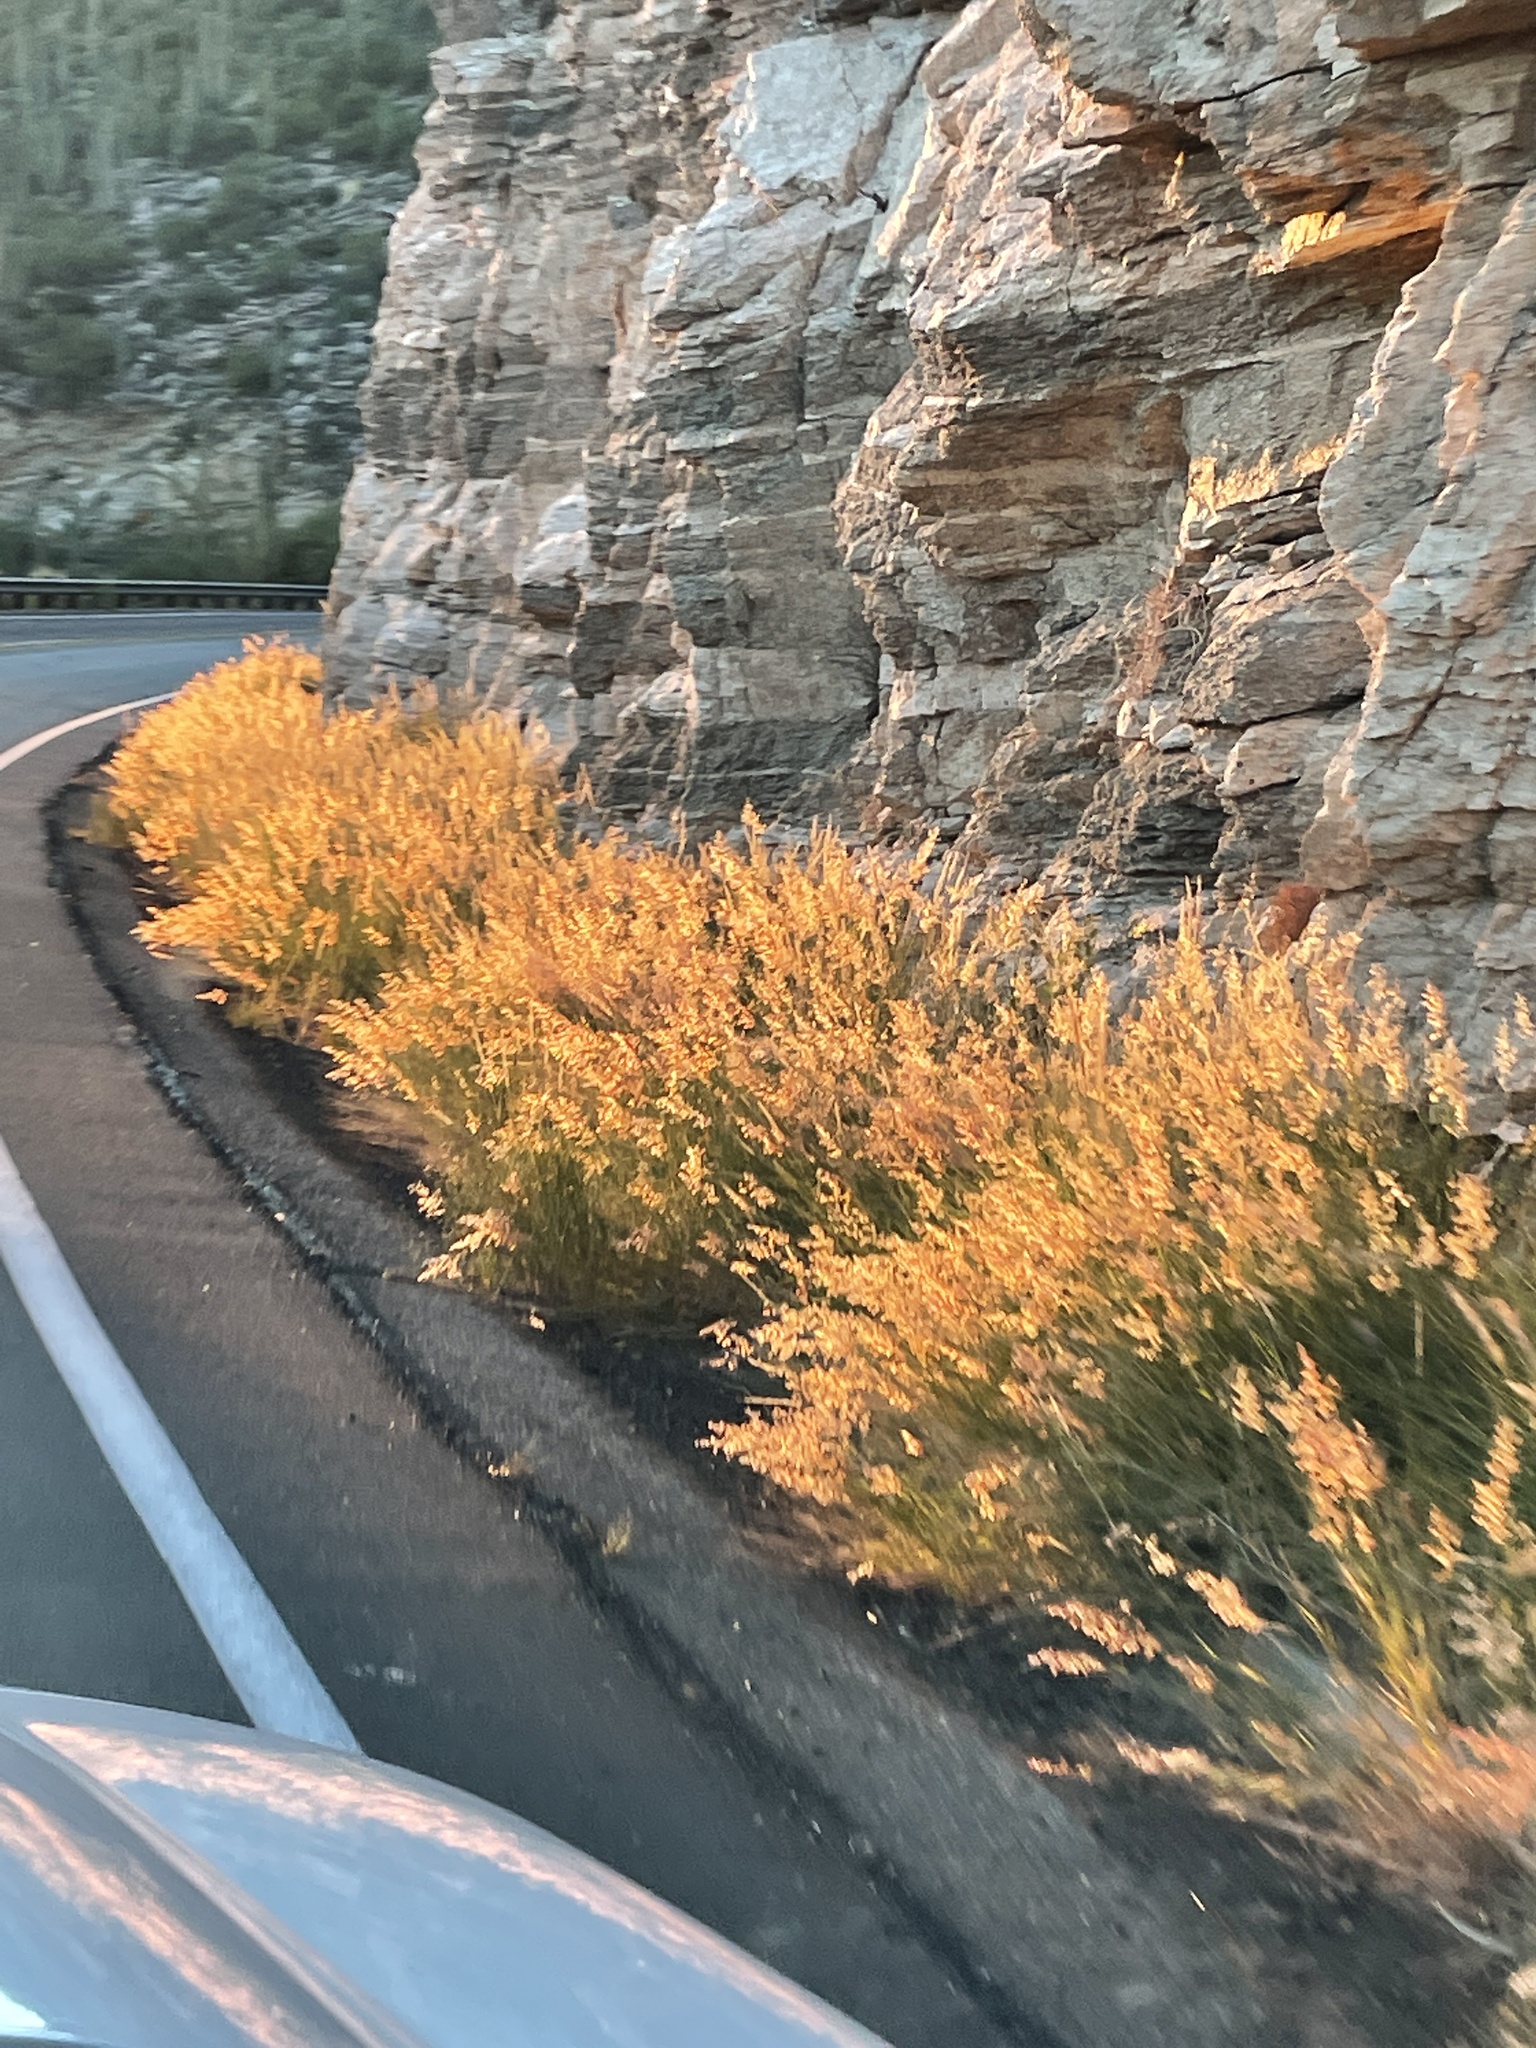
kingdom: Plantae
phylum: Tracheophyta
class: Liliopsida
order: Poales
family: Poaceae
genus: Melinis
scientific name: Melinis repens
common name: Rose natal grass
